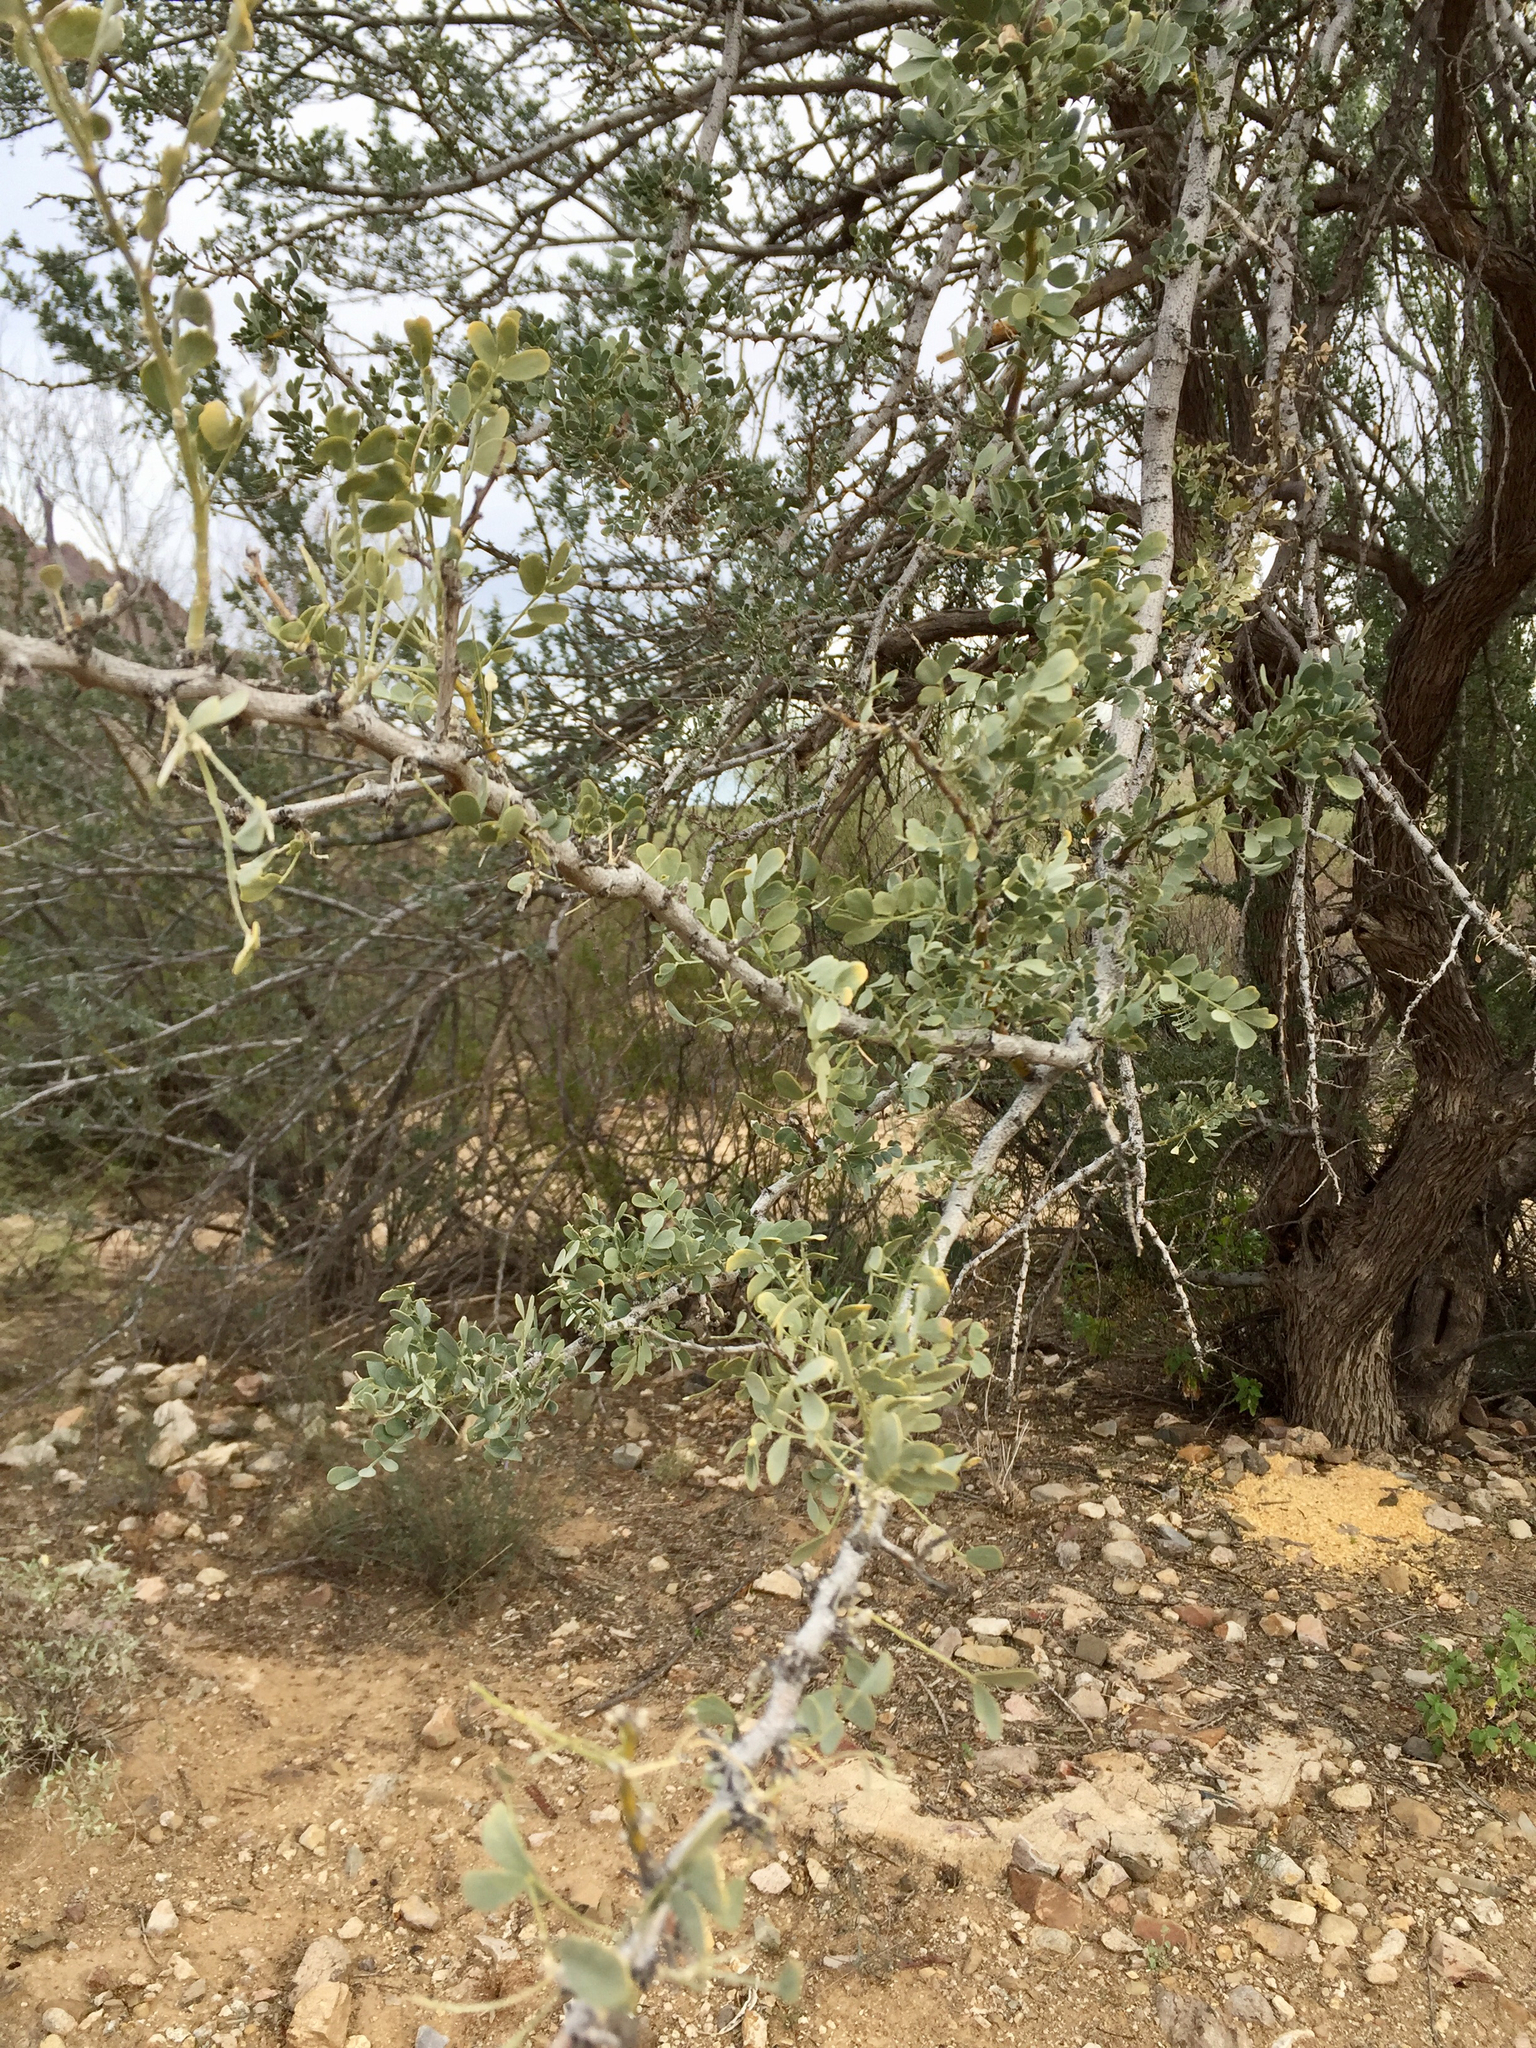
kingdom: Plantae
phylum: Tracheophyta
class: Magnoliopsida
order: Fabales
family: Fabaceae
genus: Olneya
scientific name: Olneya tesota
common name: Desert ironwood
